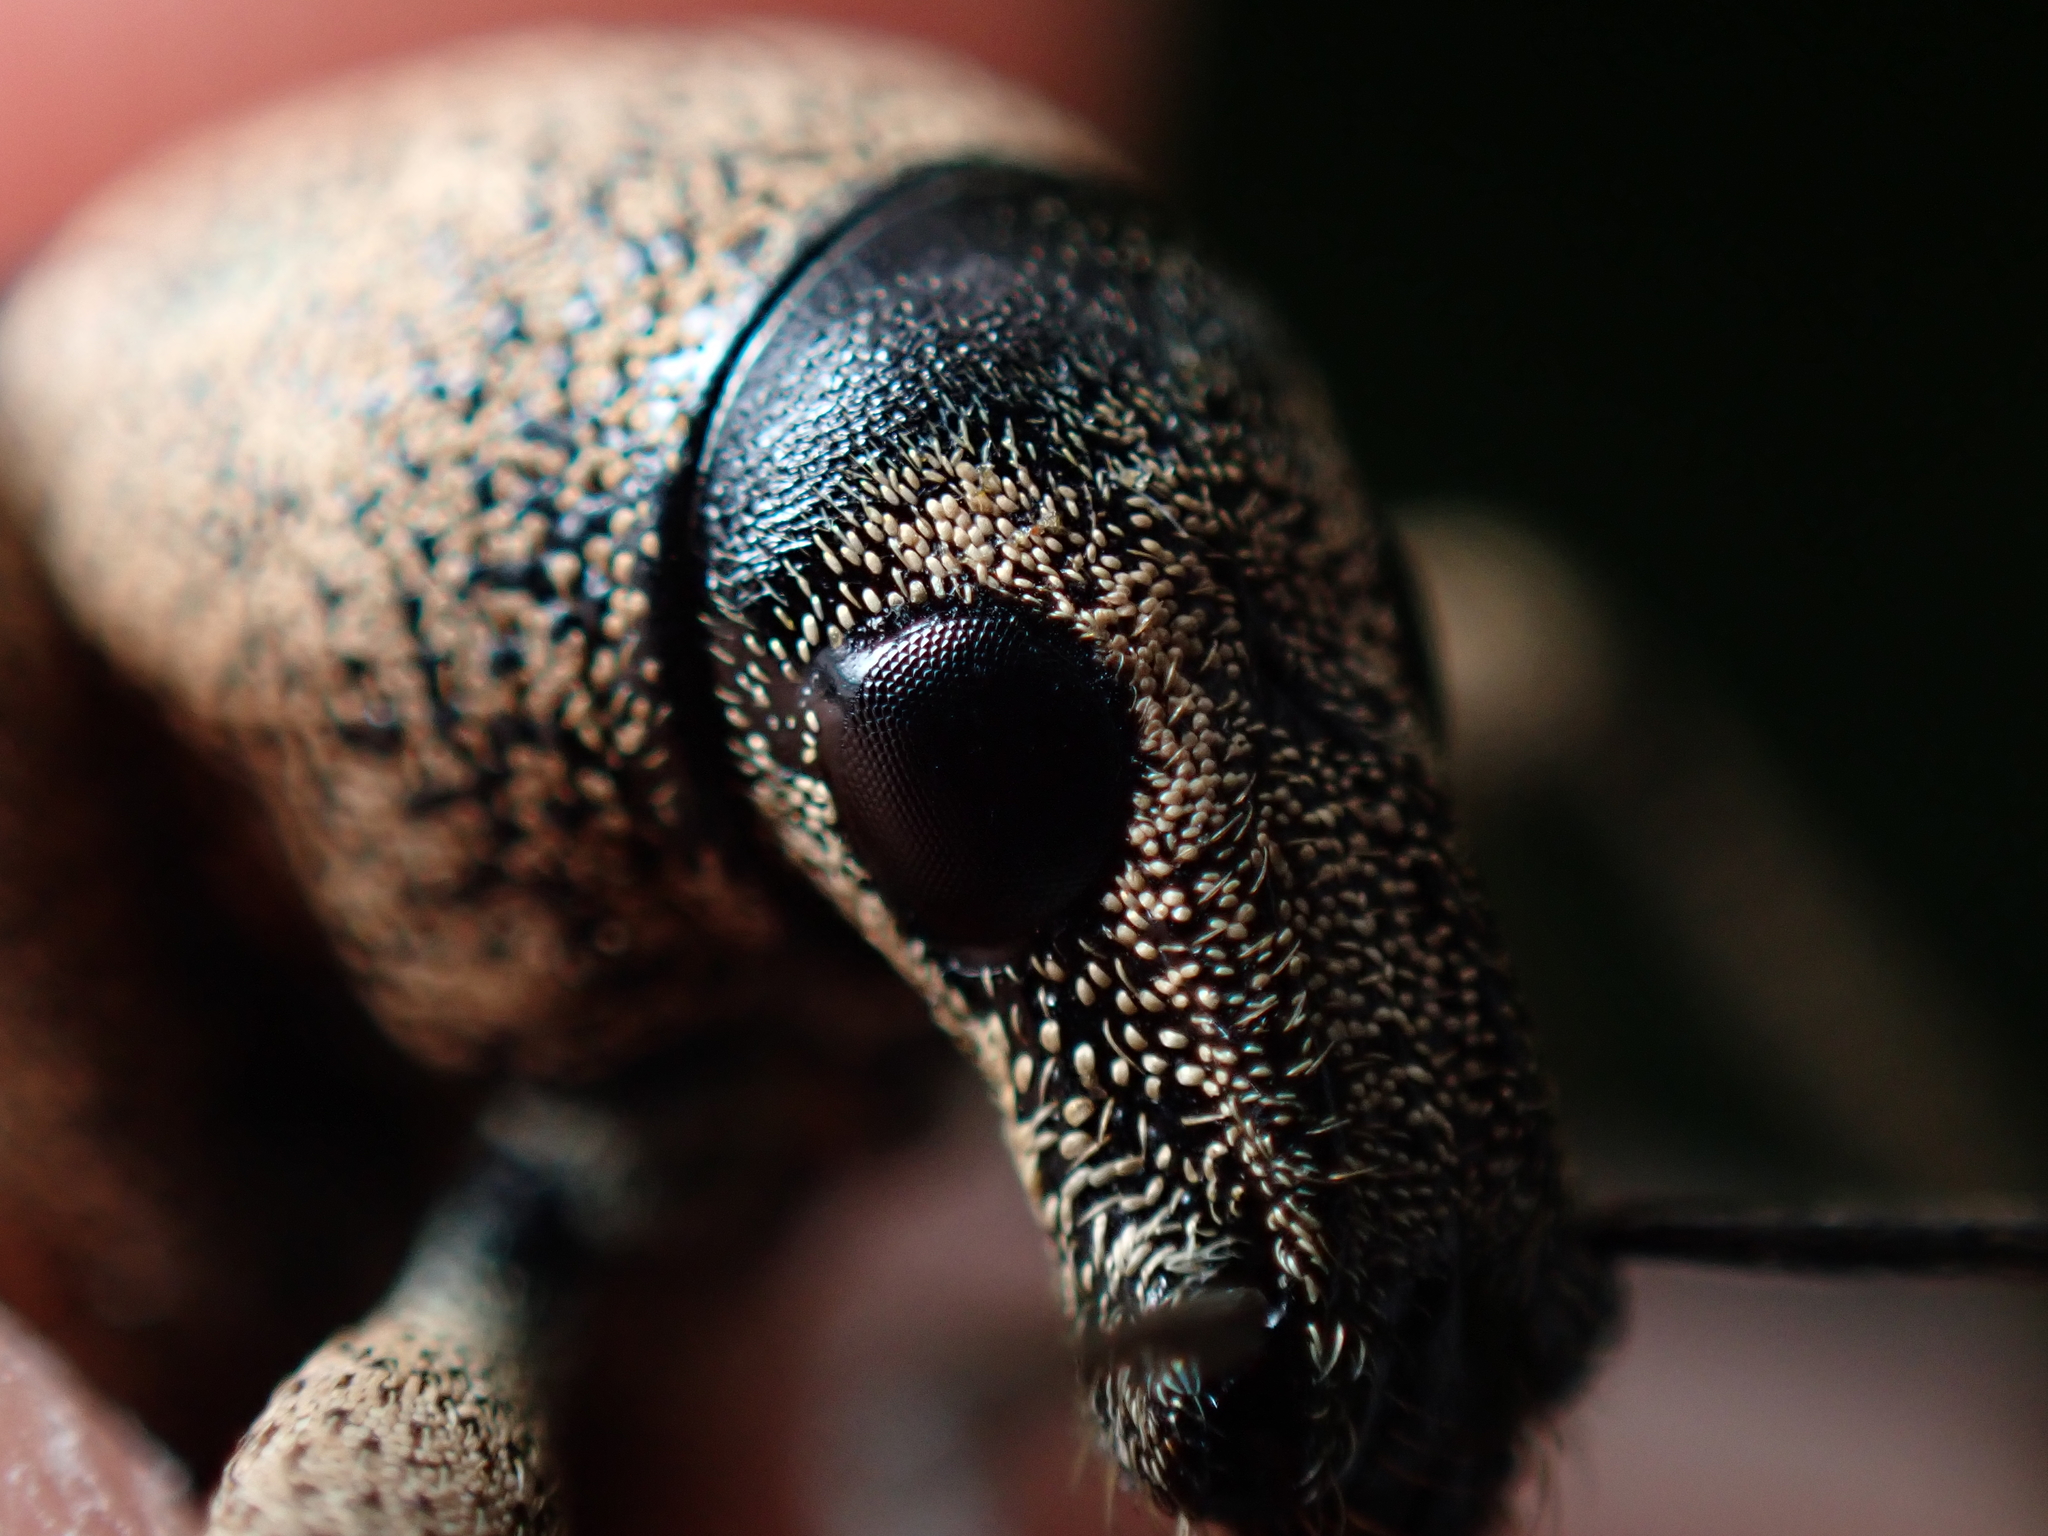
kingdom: Animalia
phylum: Arthropoda
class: Insecta
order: Coleoptera
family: Curculionidae
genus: Elytrurus
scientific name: Elytrurus serrulatus
